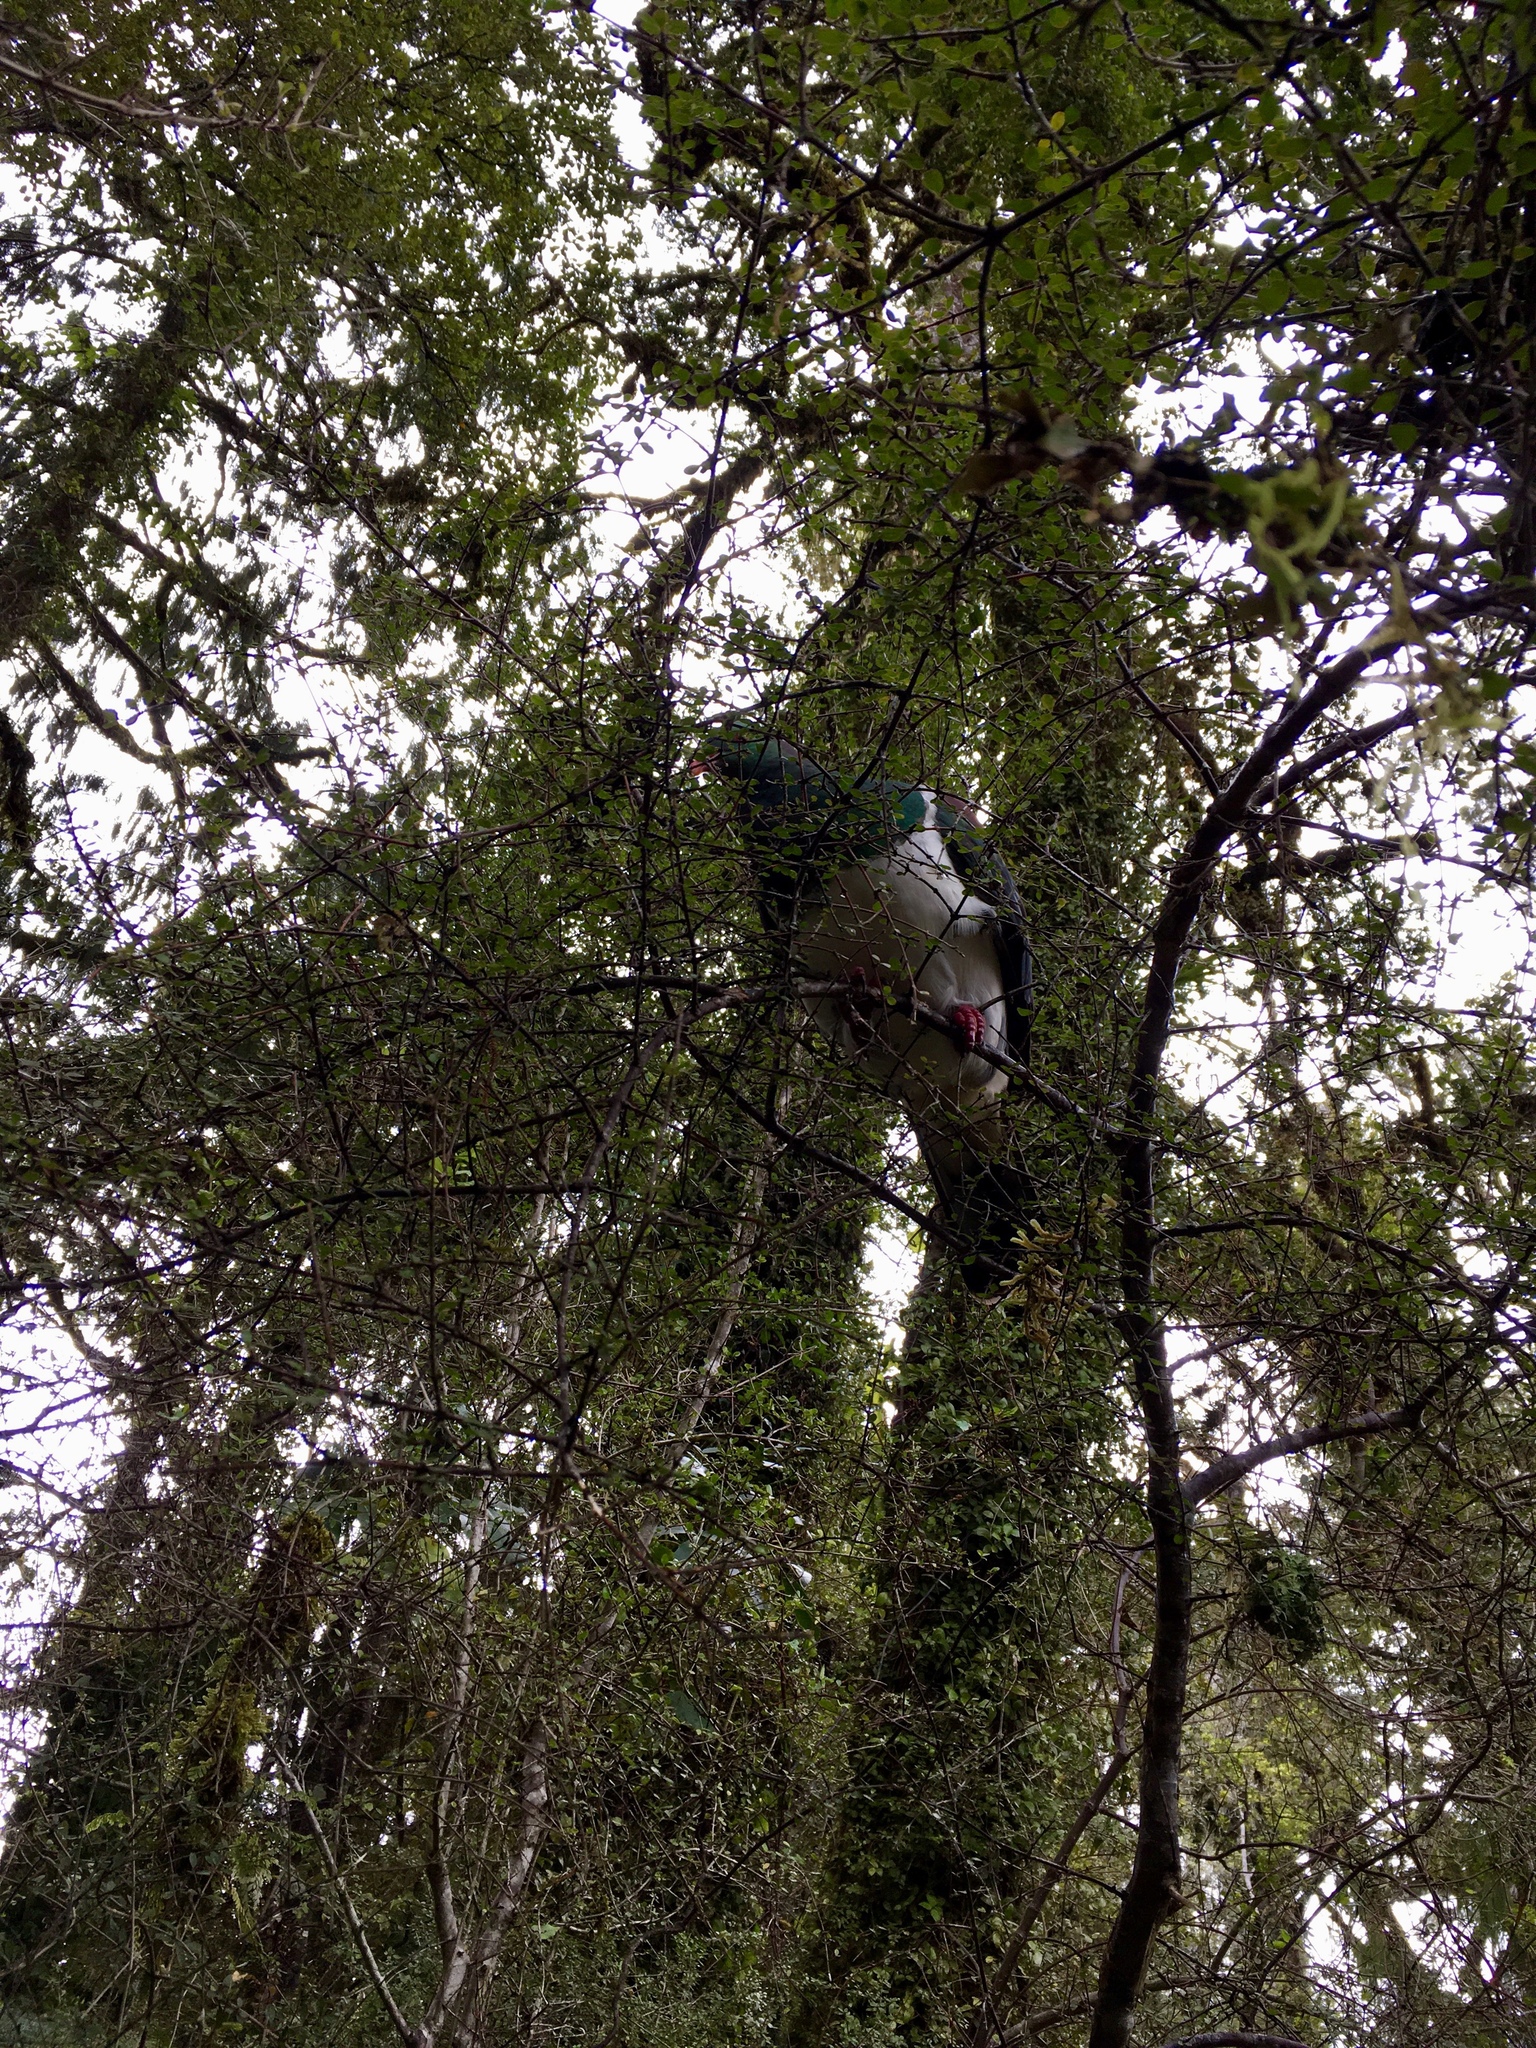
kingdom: Animalia
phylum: Chordata
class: Aves
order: Columbiformes
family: Columbidae
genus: Hemiphaga
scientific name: Hemiphaga novaeseelandiae
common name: New zealand pigeon
